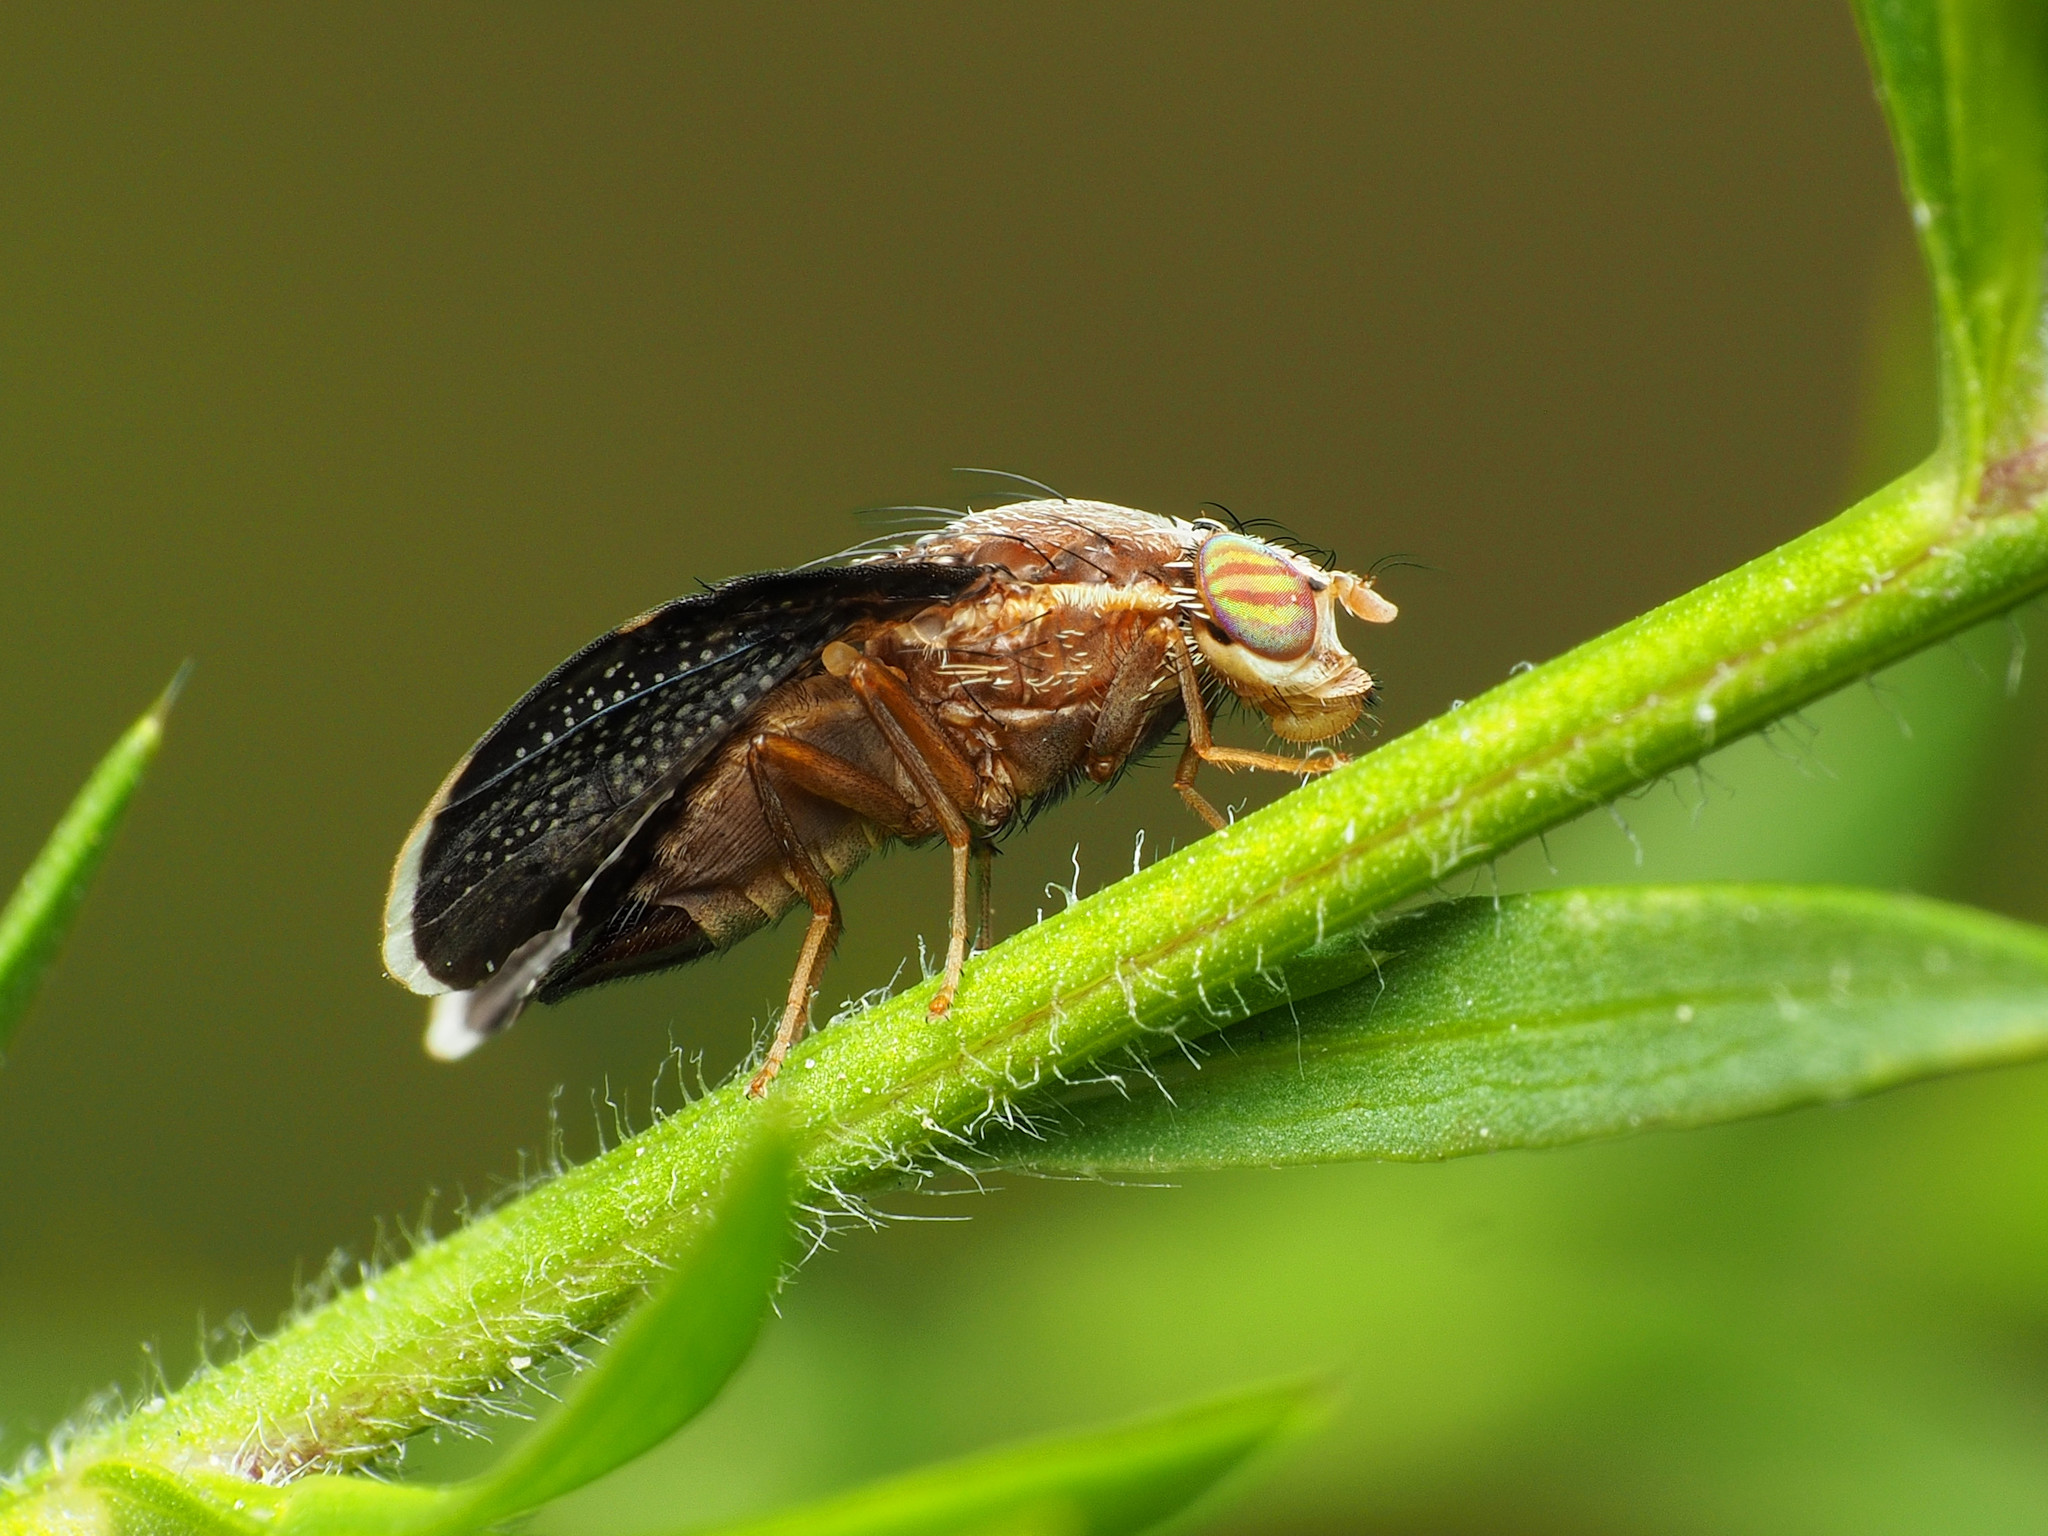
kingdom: Animalia
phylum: Arthropoda
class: Insecta
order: Diptera
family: Tephritidae
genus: Eutreta
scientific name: Eutreta novaeboracensis
